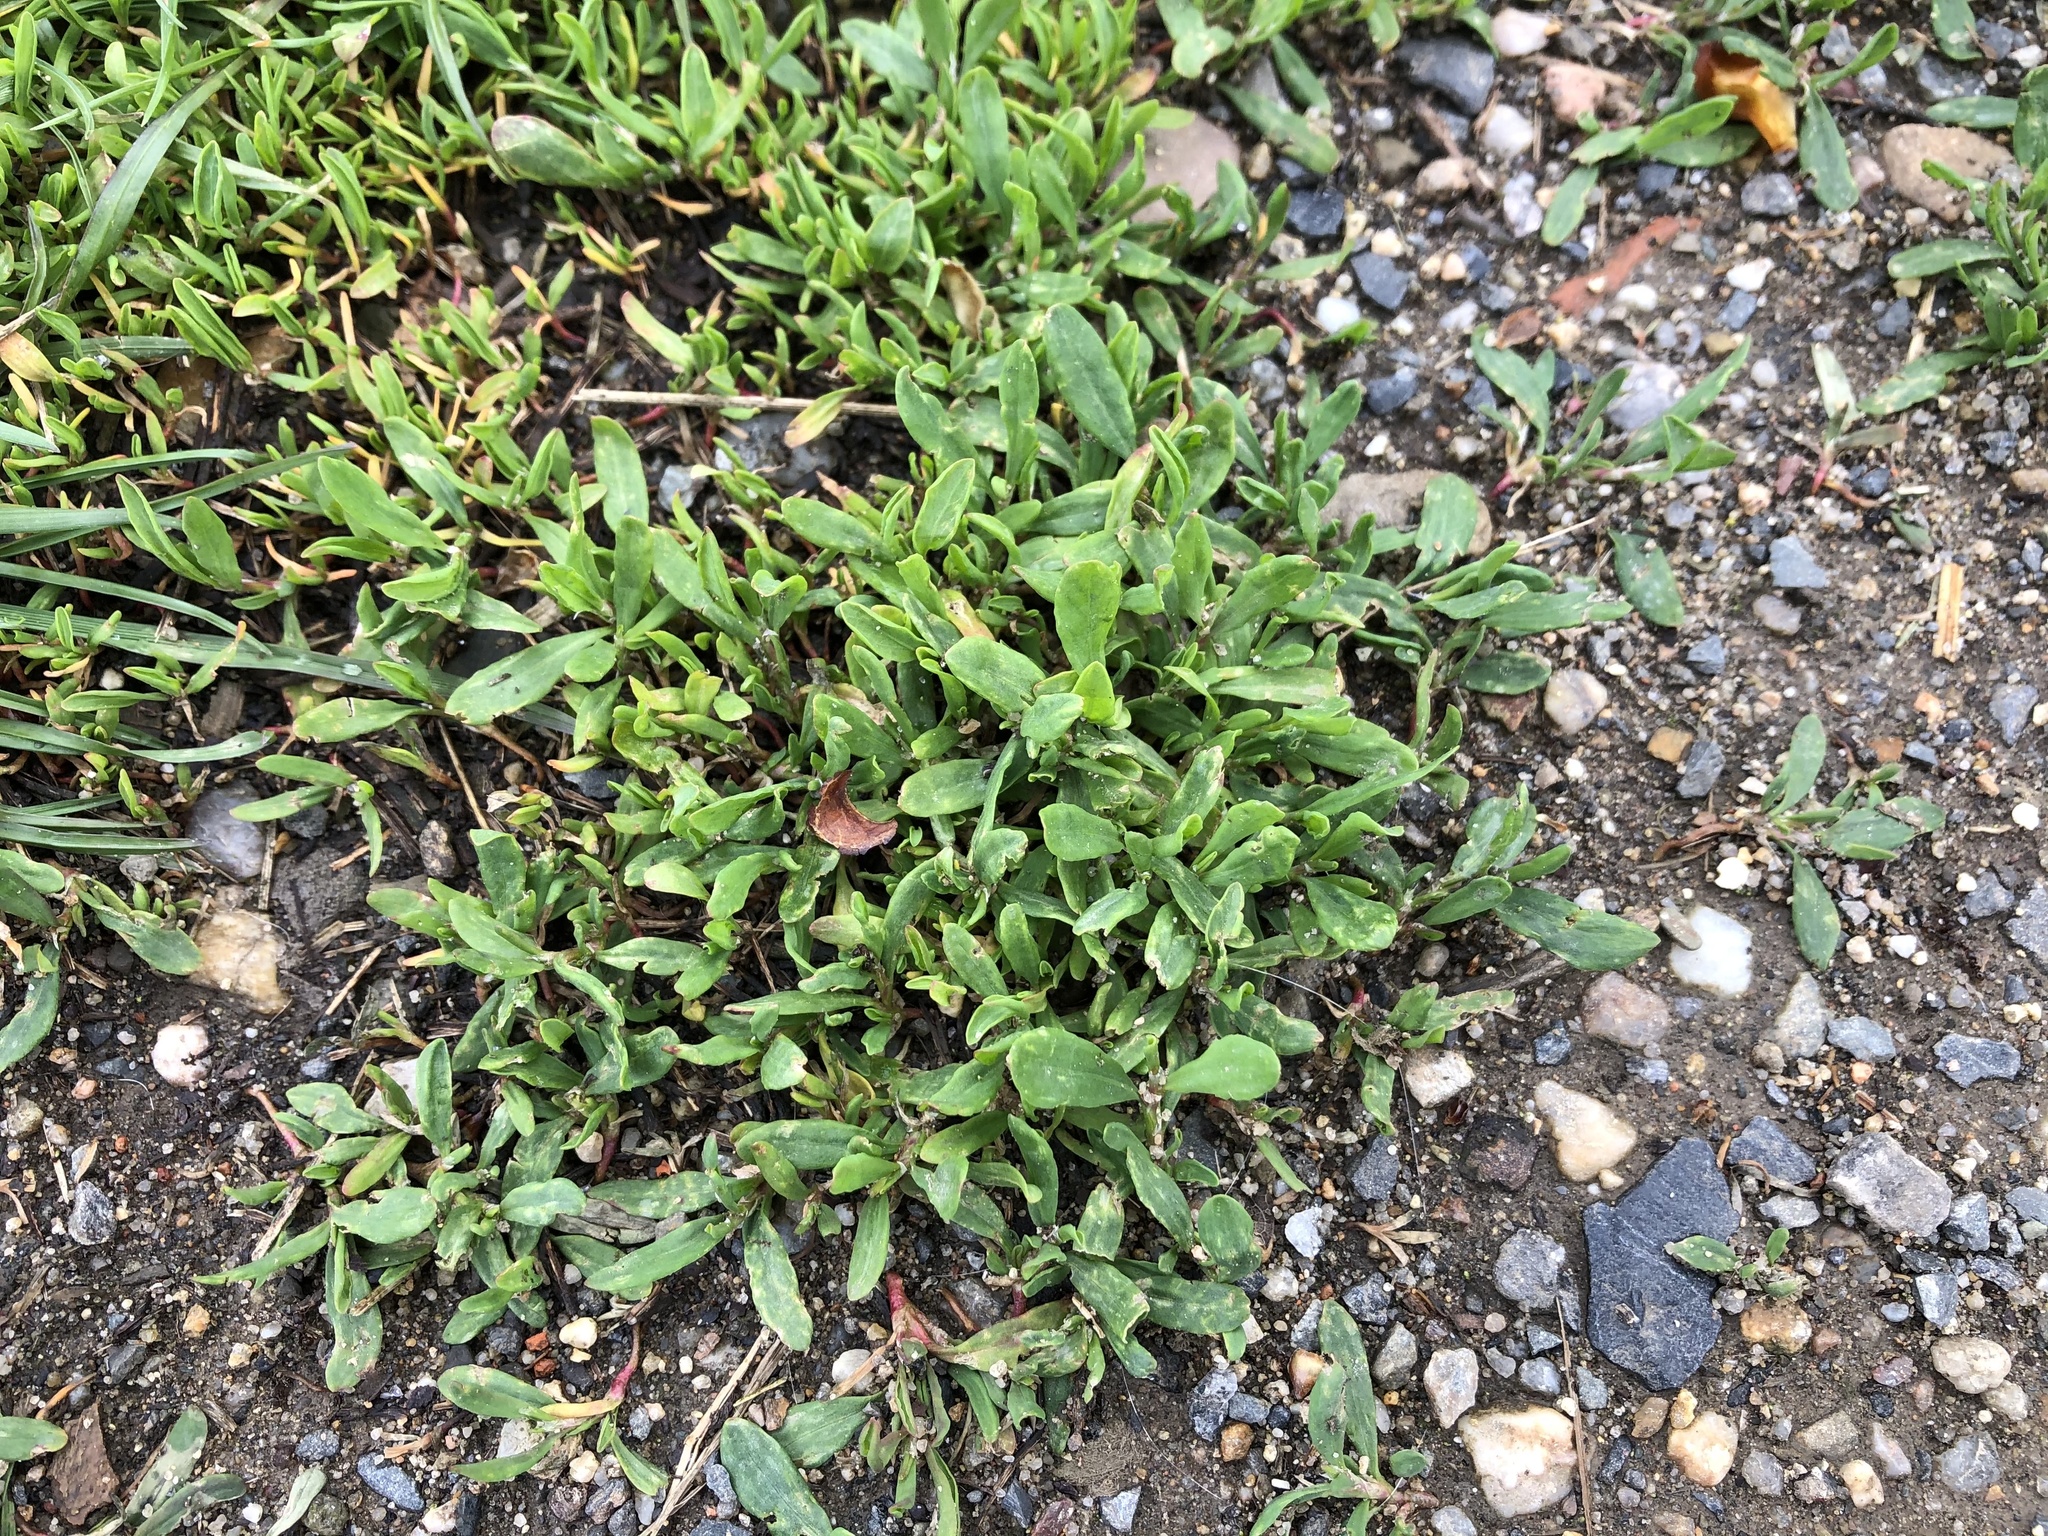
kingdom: Plantae
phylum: Tracheophyta
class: Magnoliopsida
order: Caryophyllales
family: Polygonaceae
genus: Polygonum
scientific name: Polygonum
